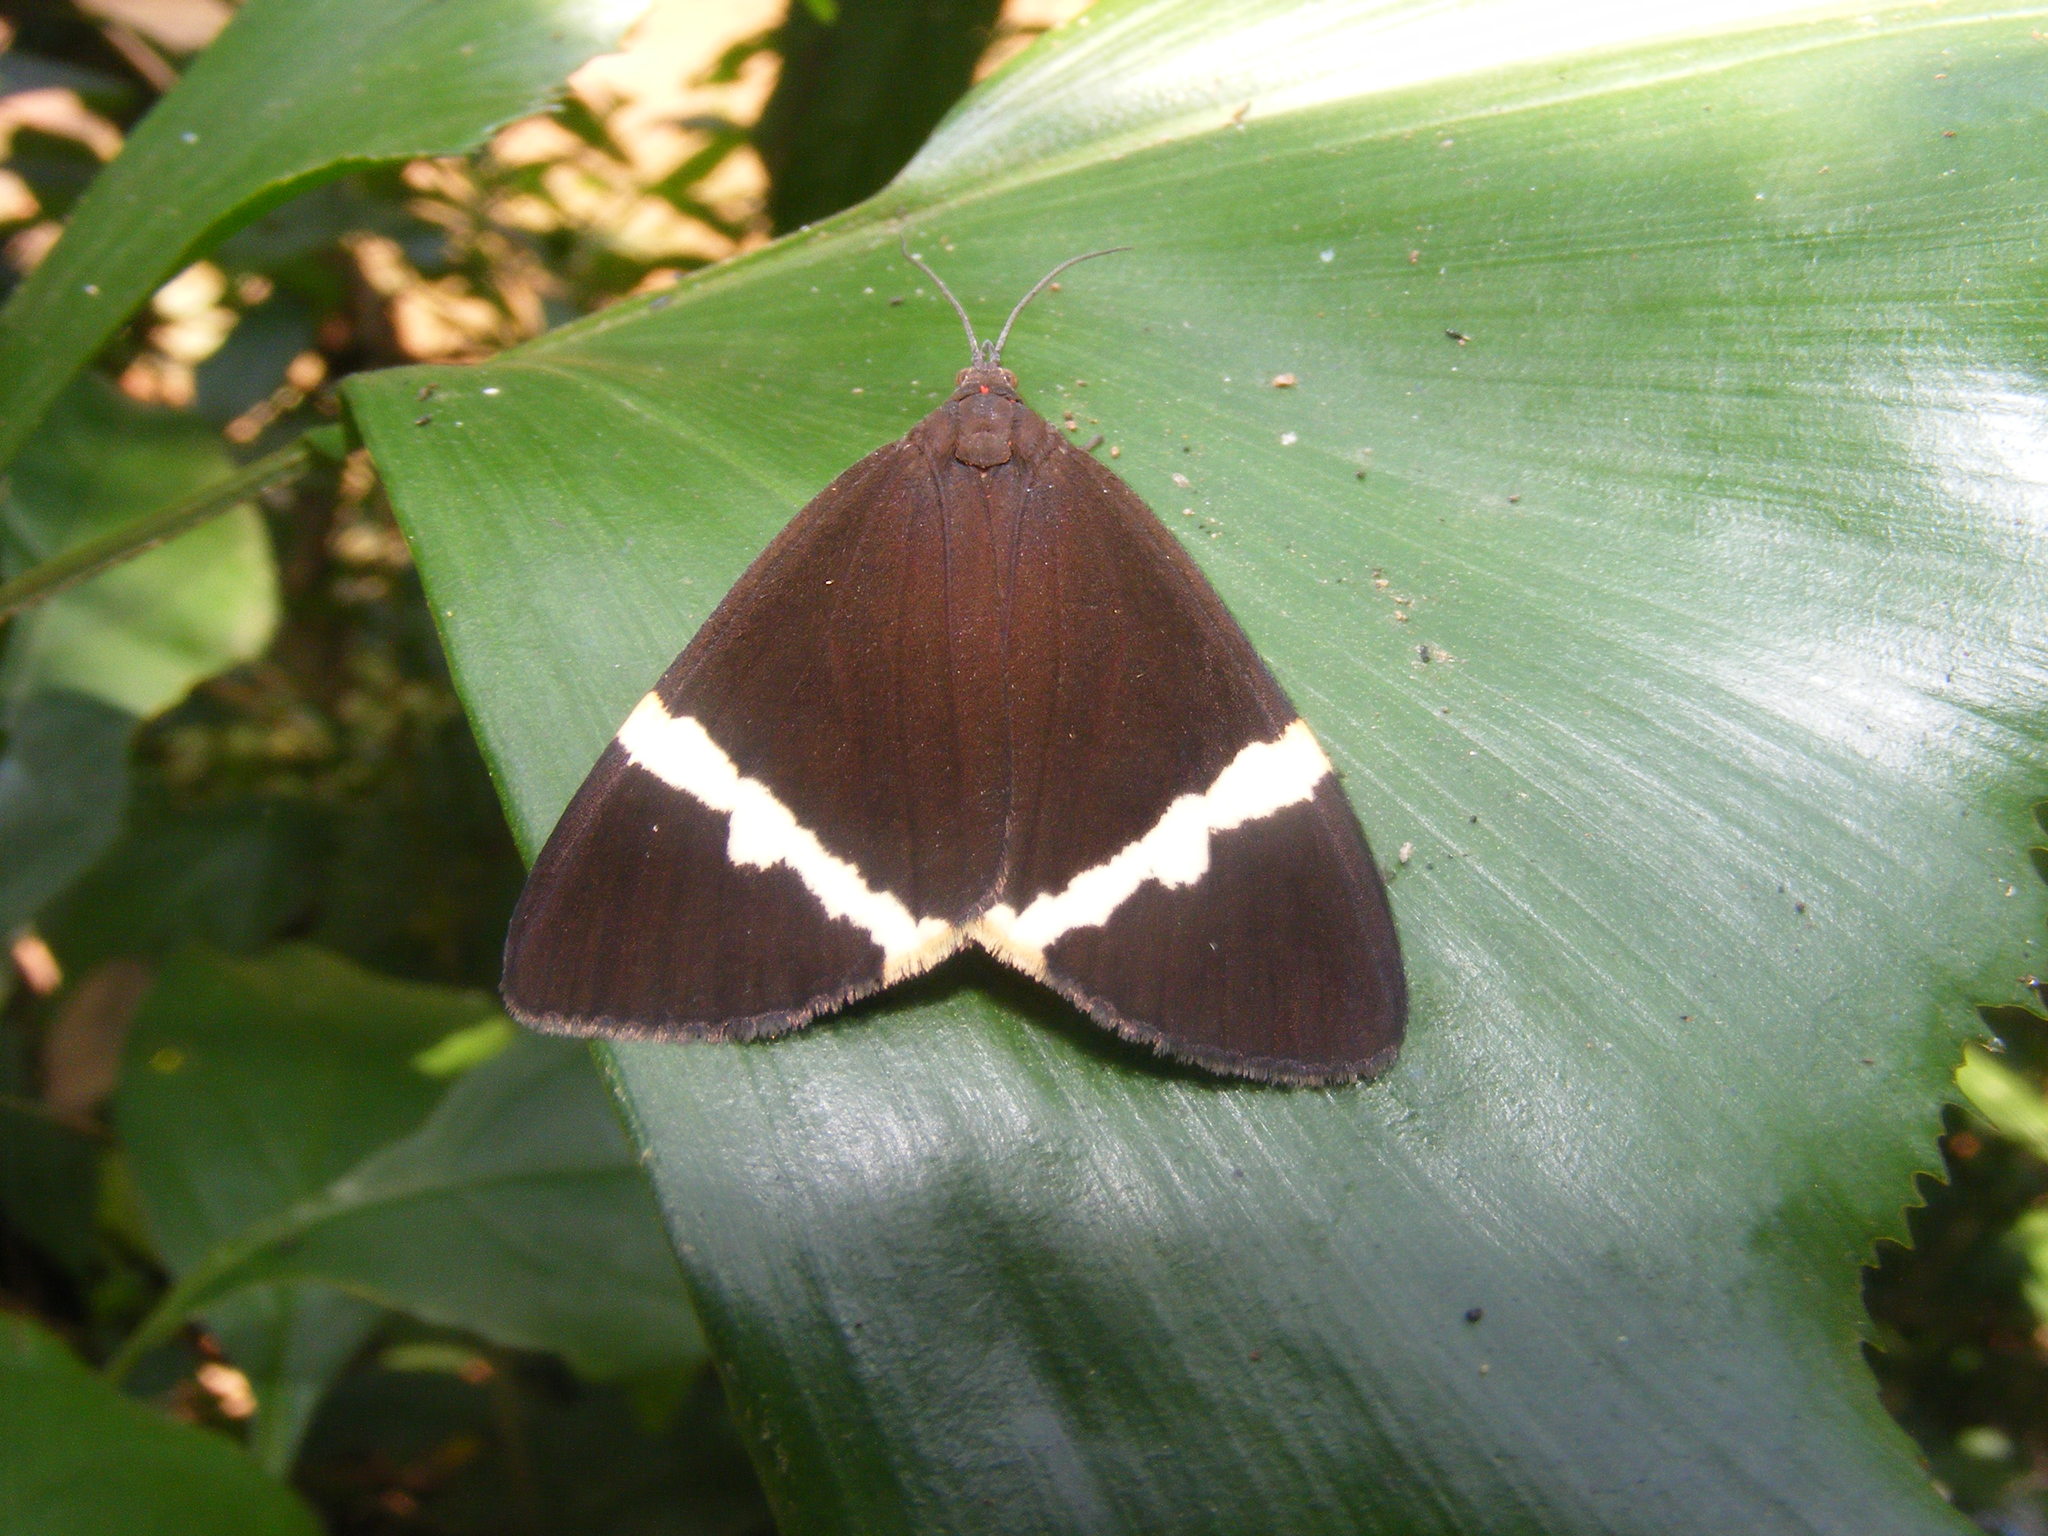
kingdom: Animalia
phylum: Arthropoda
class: Insecta
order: Lepidoptera
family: Erebidae
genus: Curoba
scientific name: Curoba sangarida
